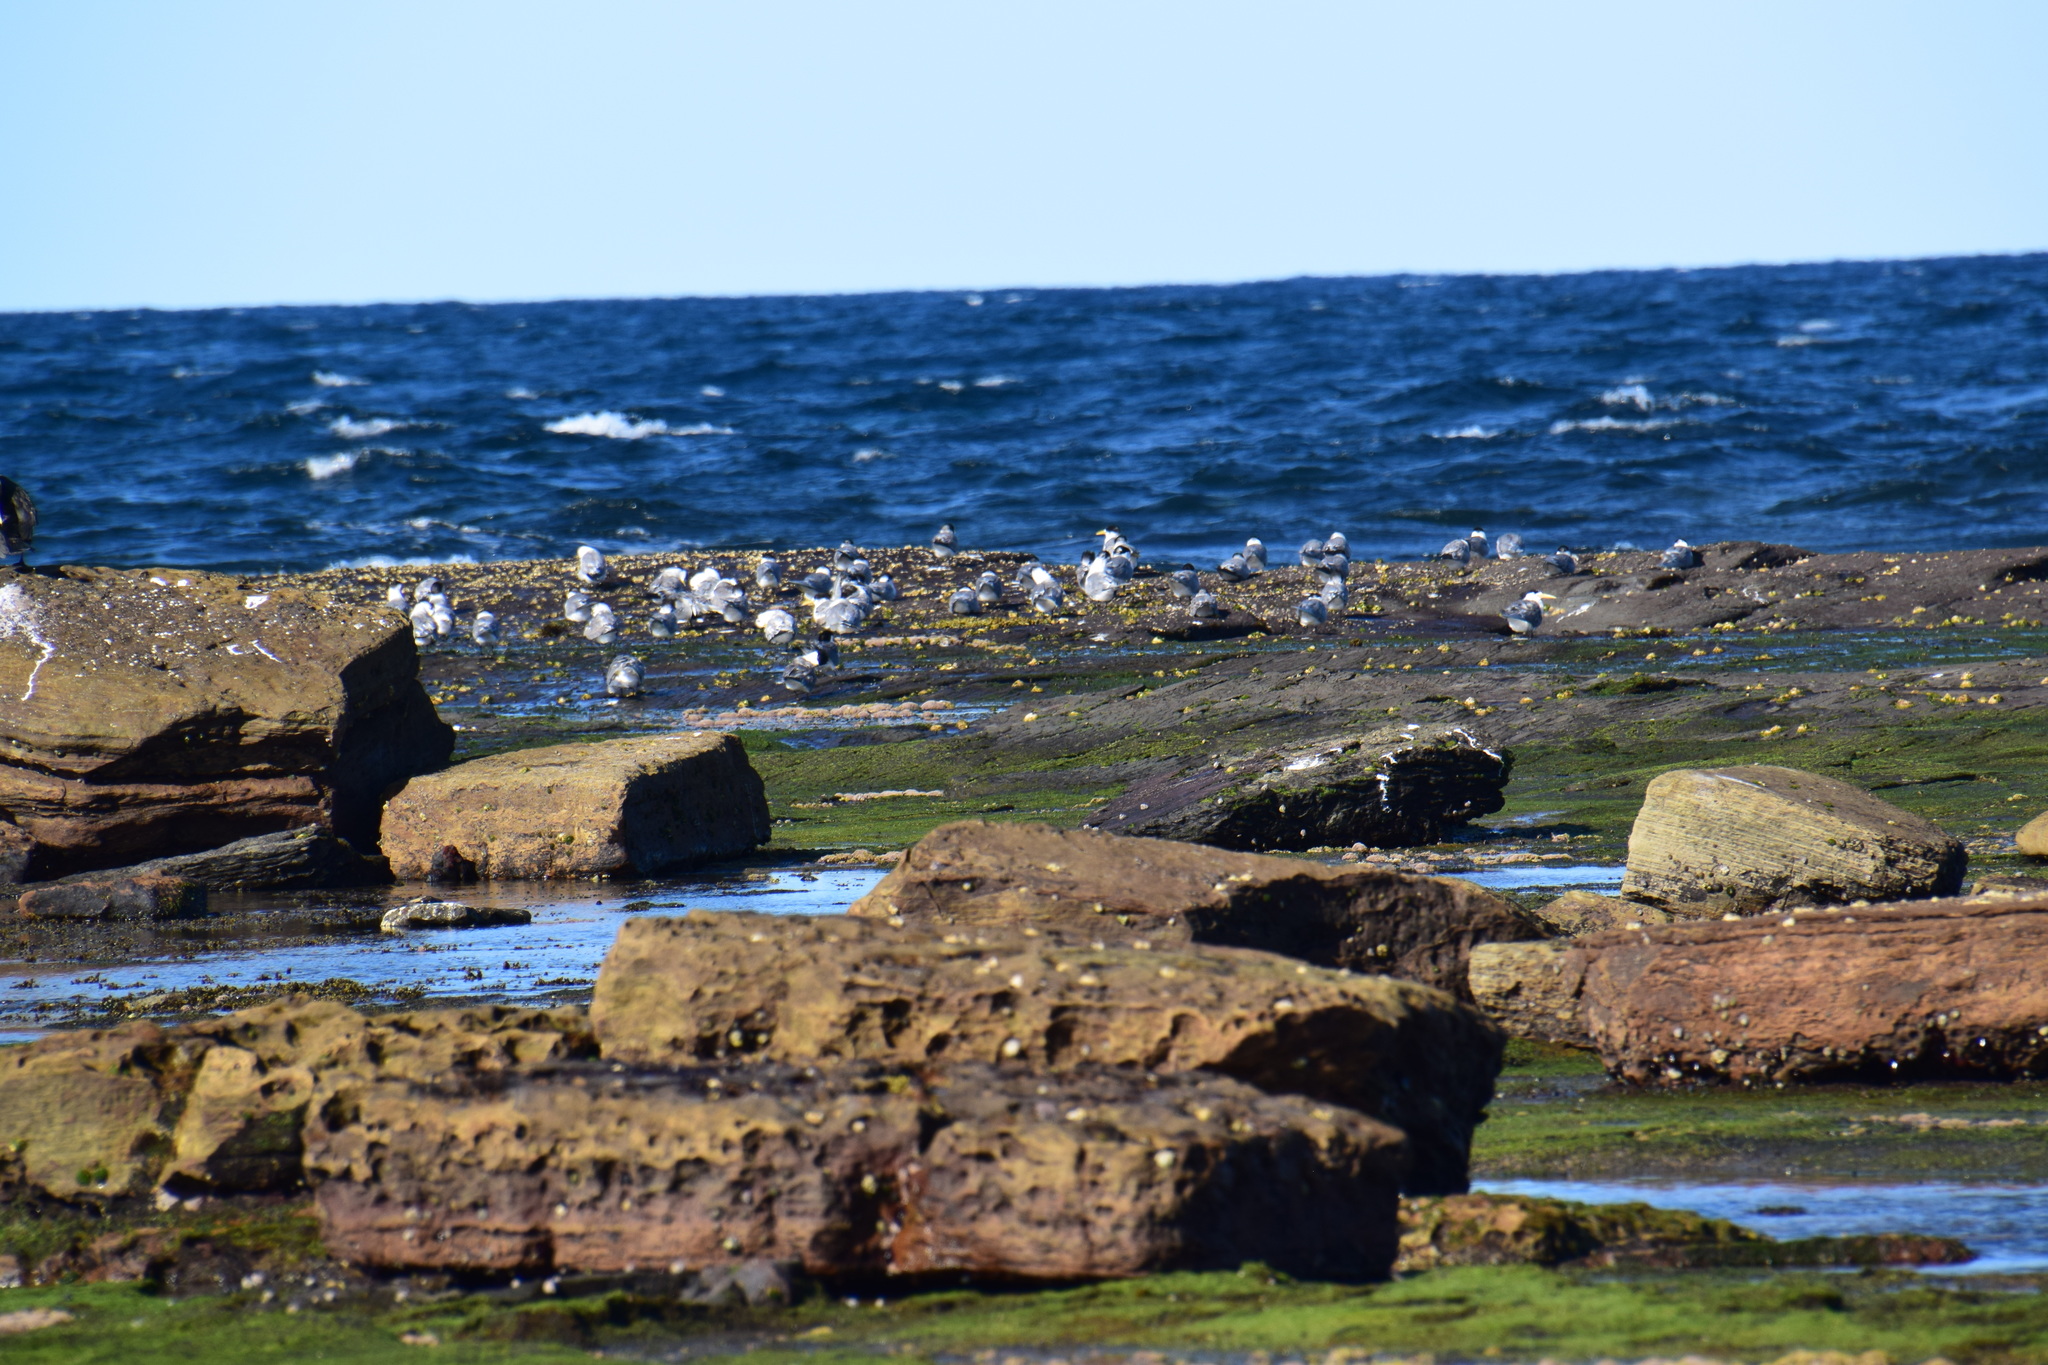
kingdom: Animalia
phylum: Chordata
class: Aves
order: Charadriiformes
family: Laridae
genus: Thalasseus
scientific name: Thalasseus bergii
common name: Greater crested tern
